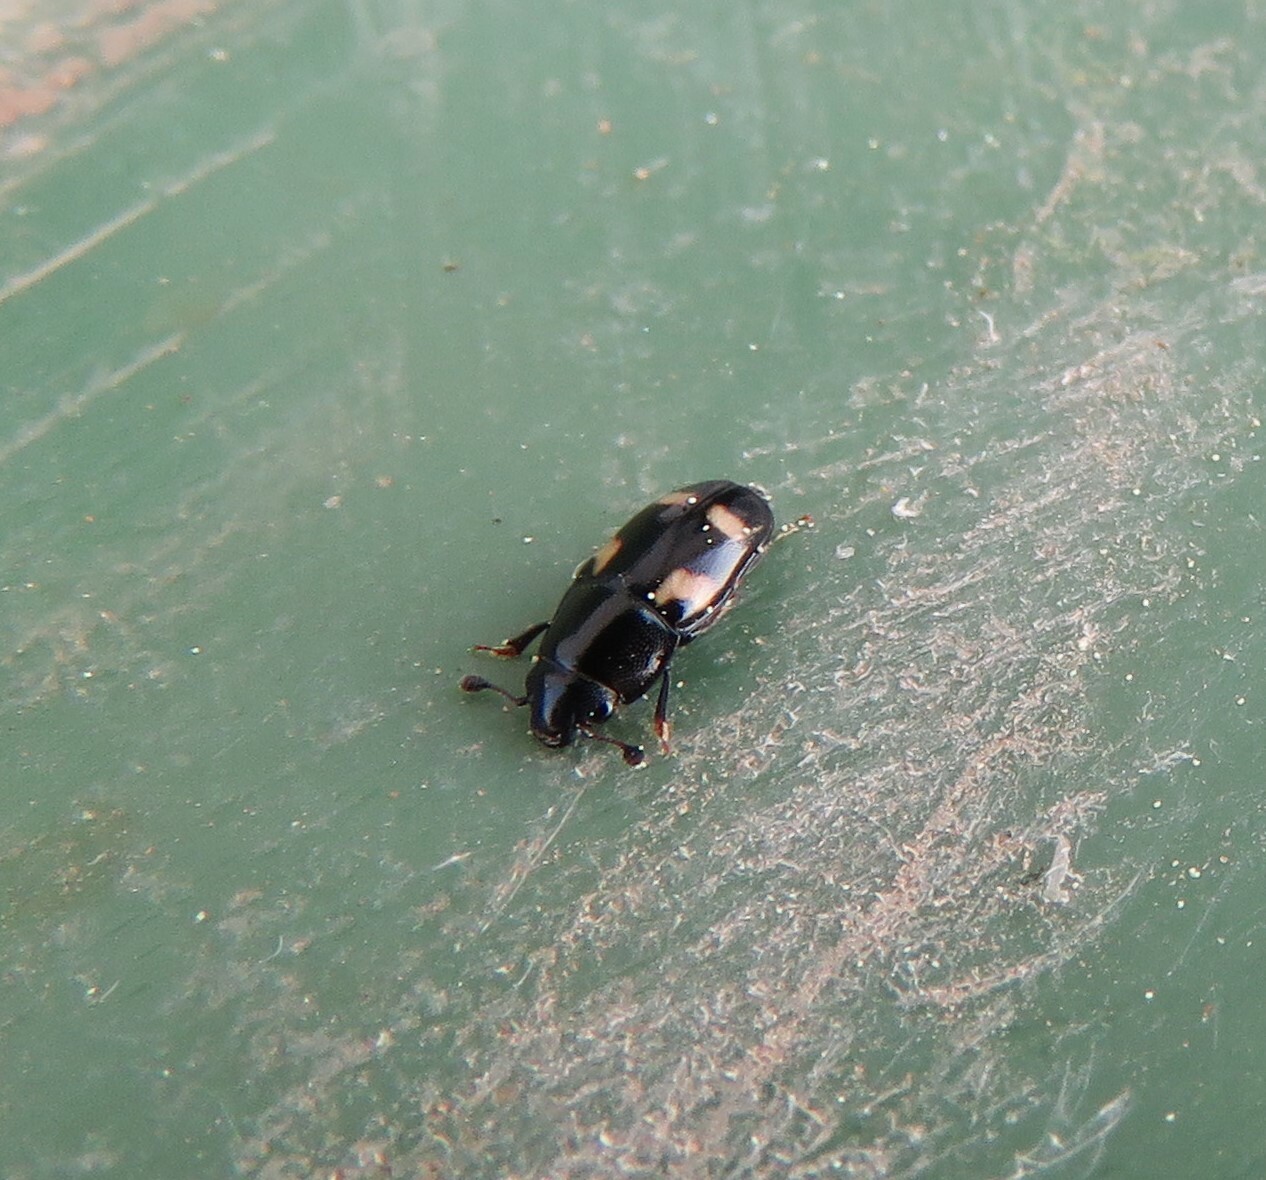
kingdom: Animalia
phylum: Arthropoda
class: Insecta
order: Coleoptera
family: Nitidulidae
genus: Glischrochilus
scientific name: Glischrochilus quadrisignatus
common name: Picnic beetle
